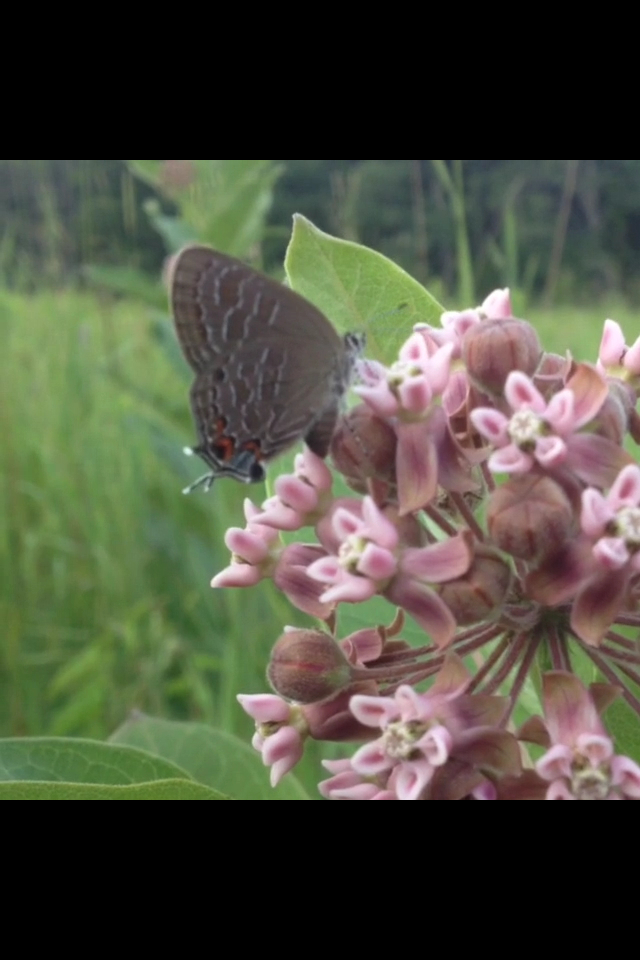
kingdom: Animalia
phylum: Arthropoda
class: Insecta
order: Lepidoptera
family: Lycaenidae
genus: Satyrium
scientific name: Satyrium liparops
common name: Striped hairstreak
